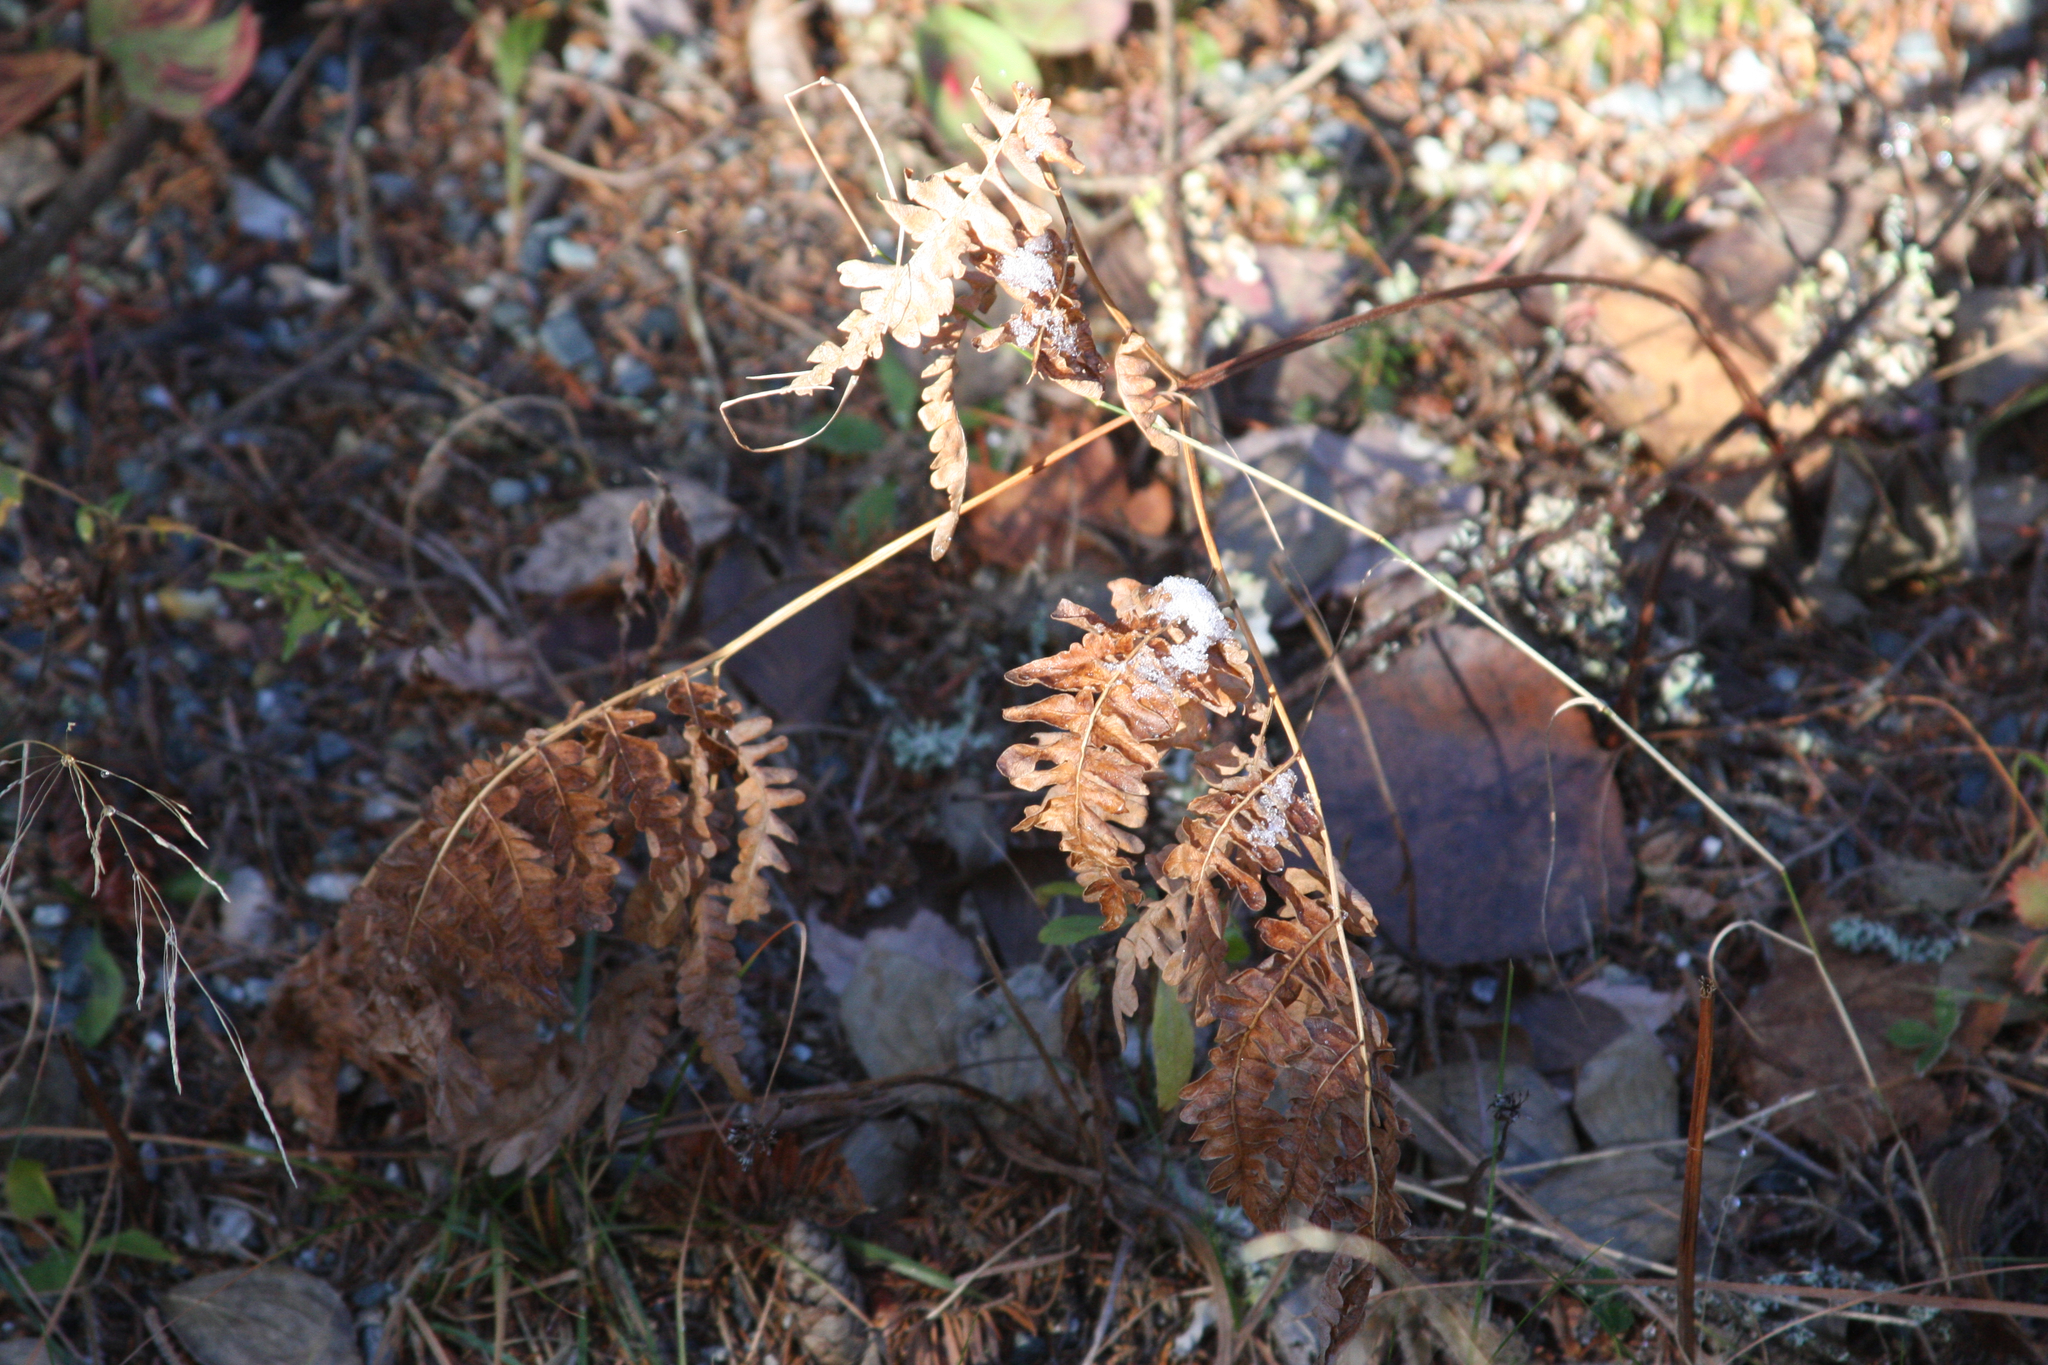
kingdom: Plantae
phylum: Tracheophyta
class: Polypodiopsida
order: Polypodiales
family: Dennstaedtiaceae
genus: Pteridium
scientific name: Pteridium aquilinum
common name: Bracken
